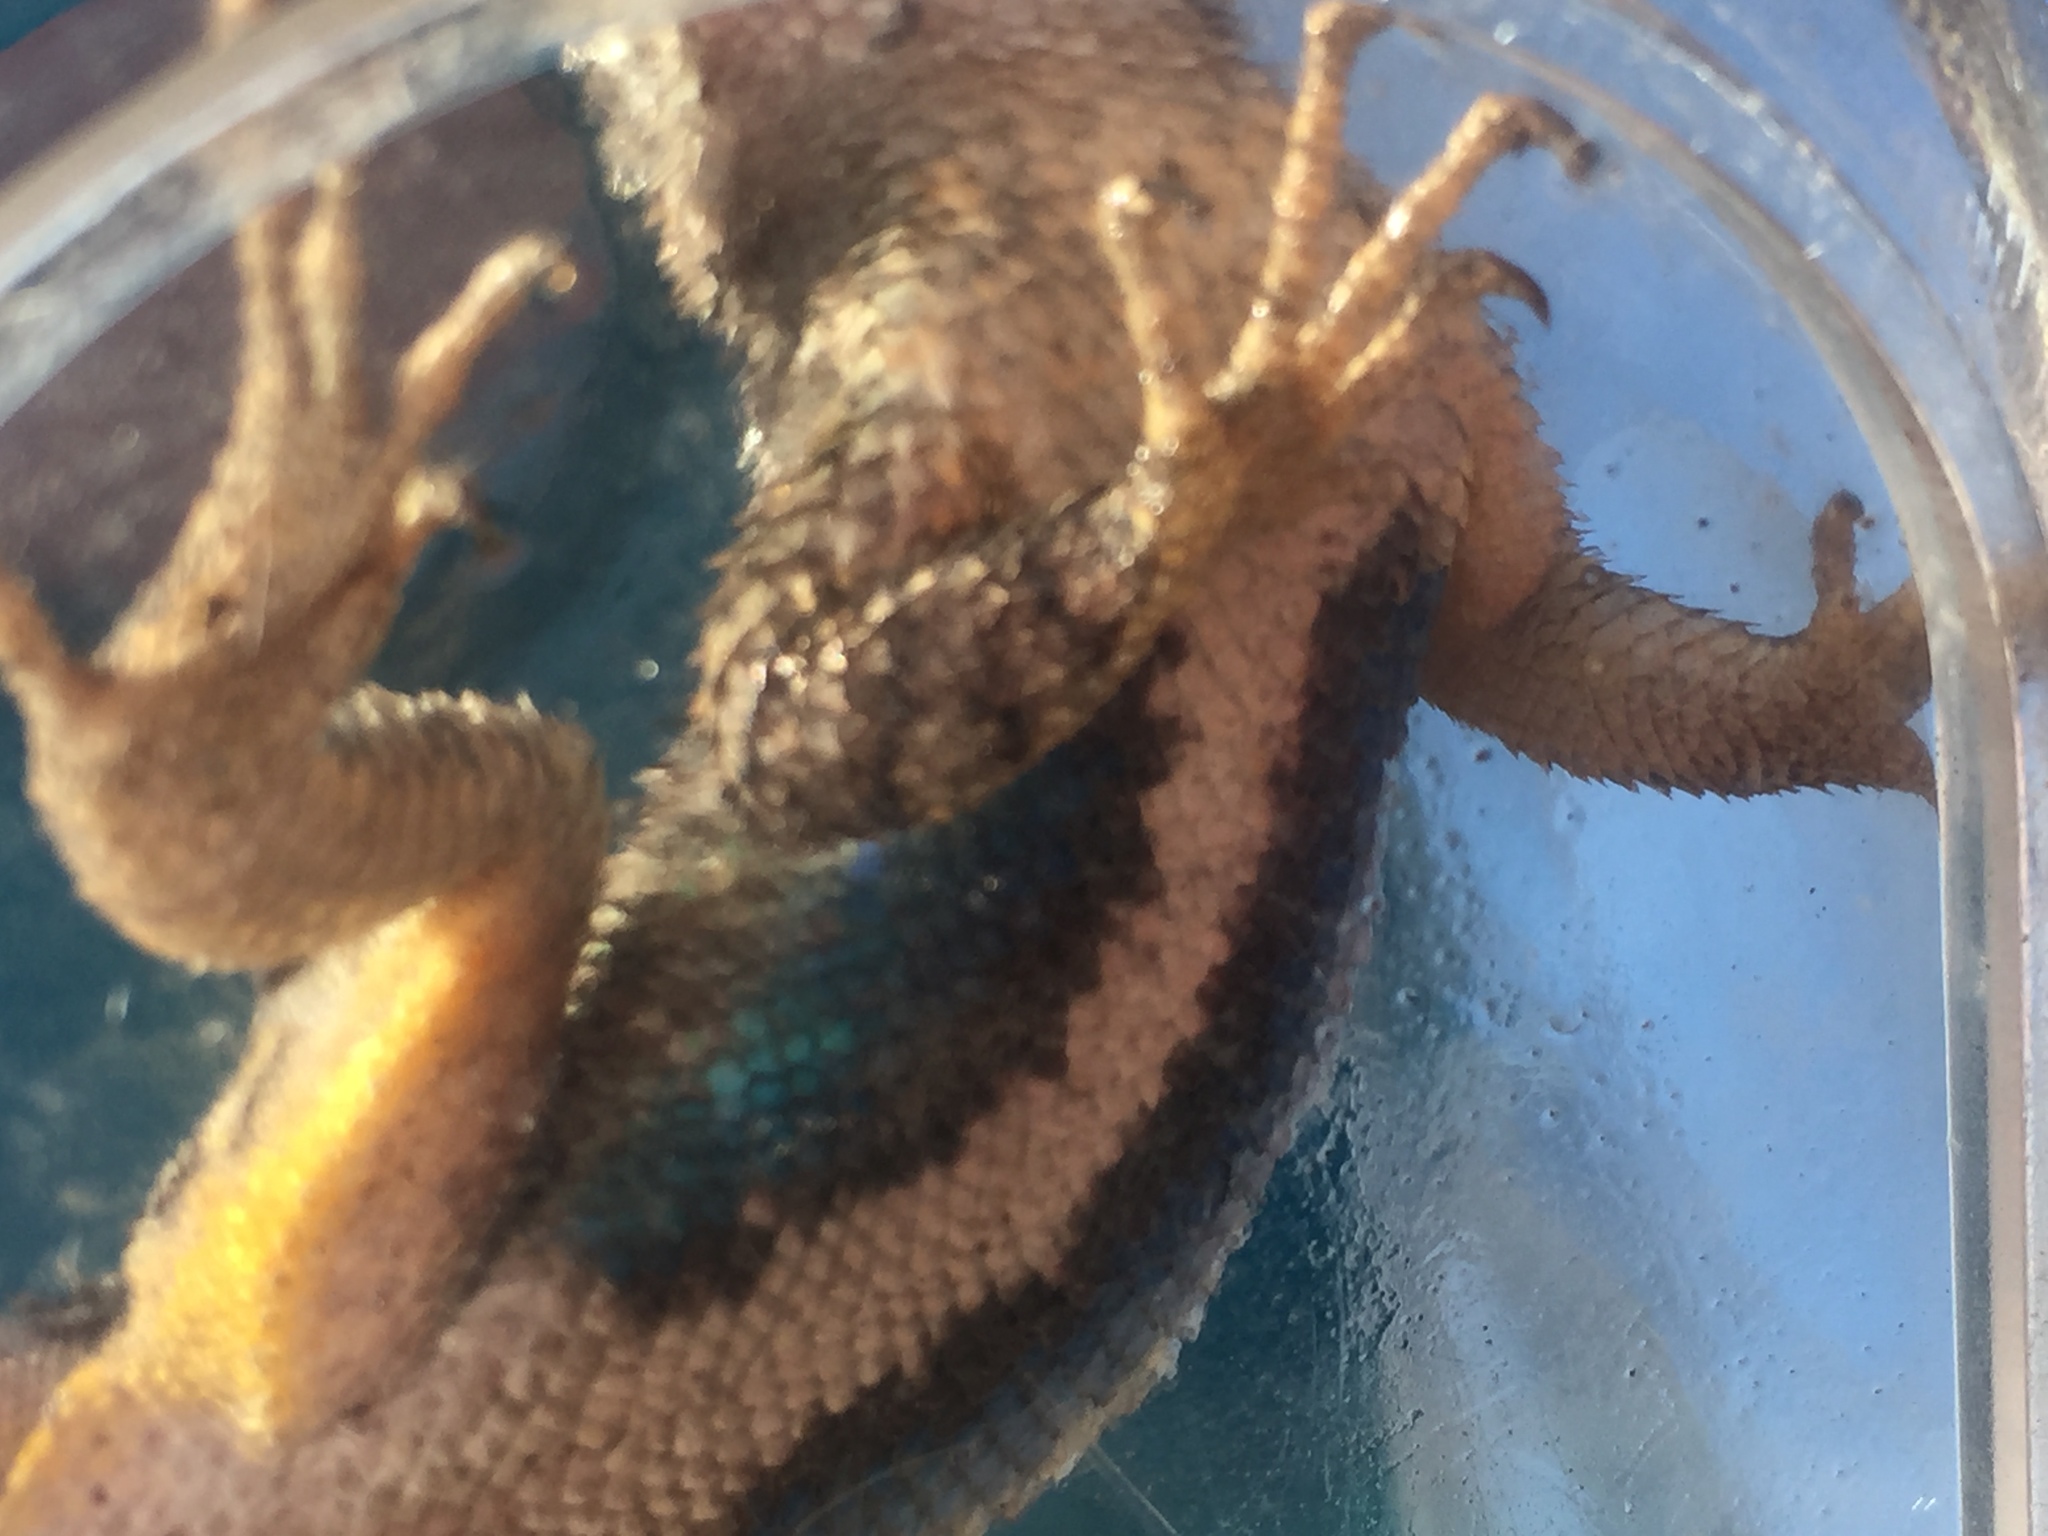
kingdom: Animalia
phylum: Chordata
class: Squamata
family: Phrynosomatidae
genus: Sceloporus
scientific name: Sceloporus occidentalis
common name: Western fence lizard
